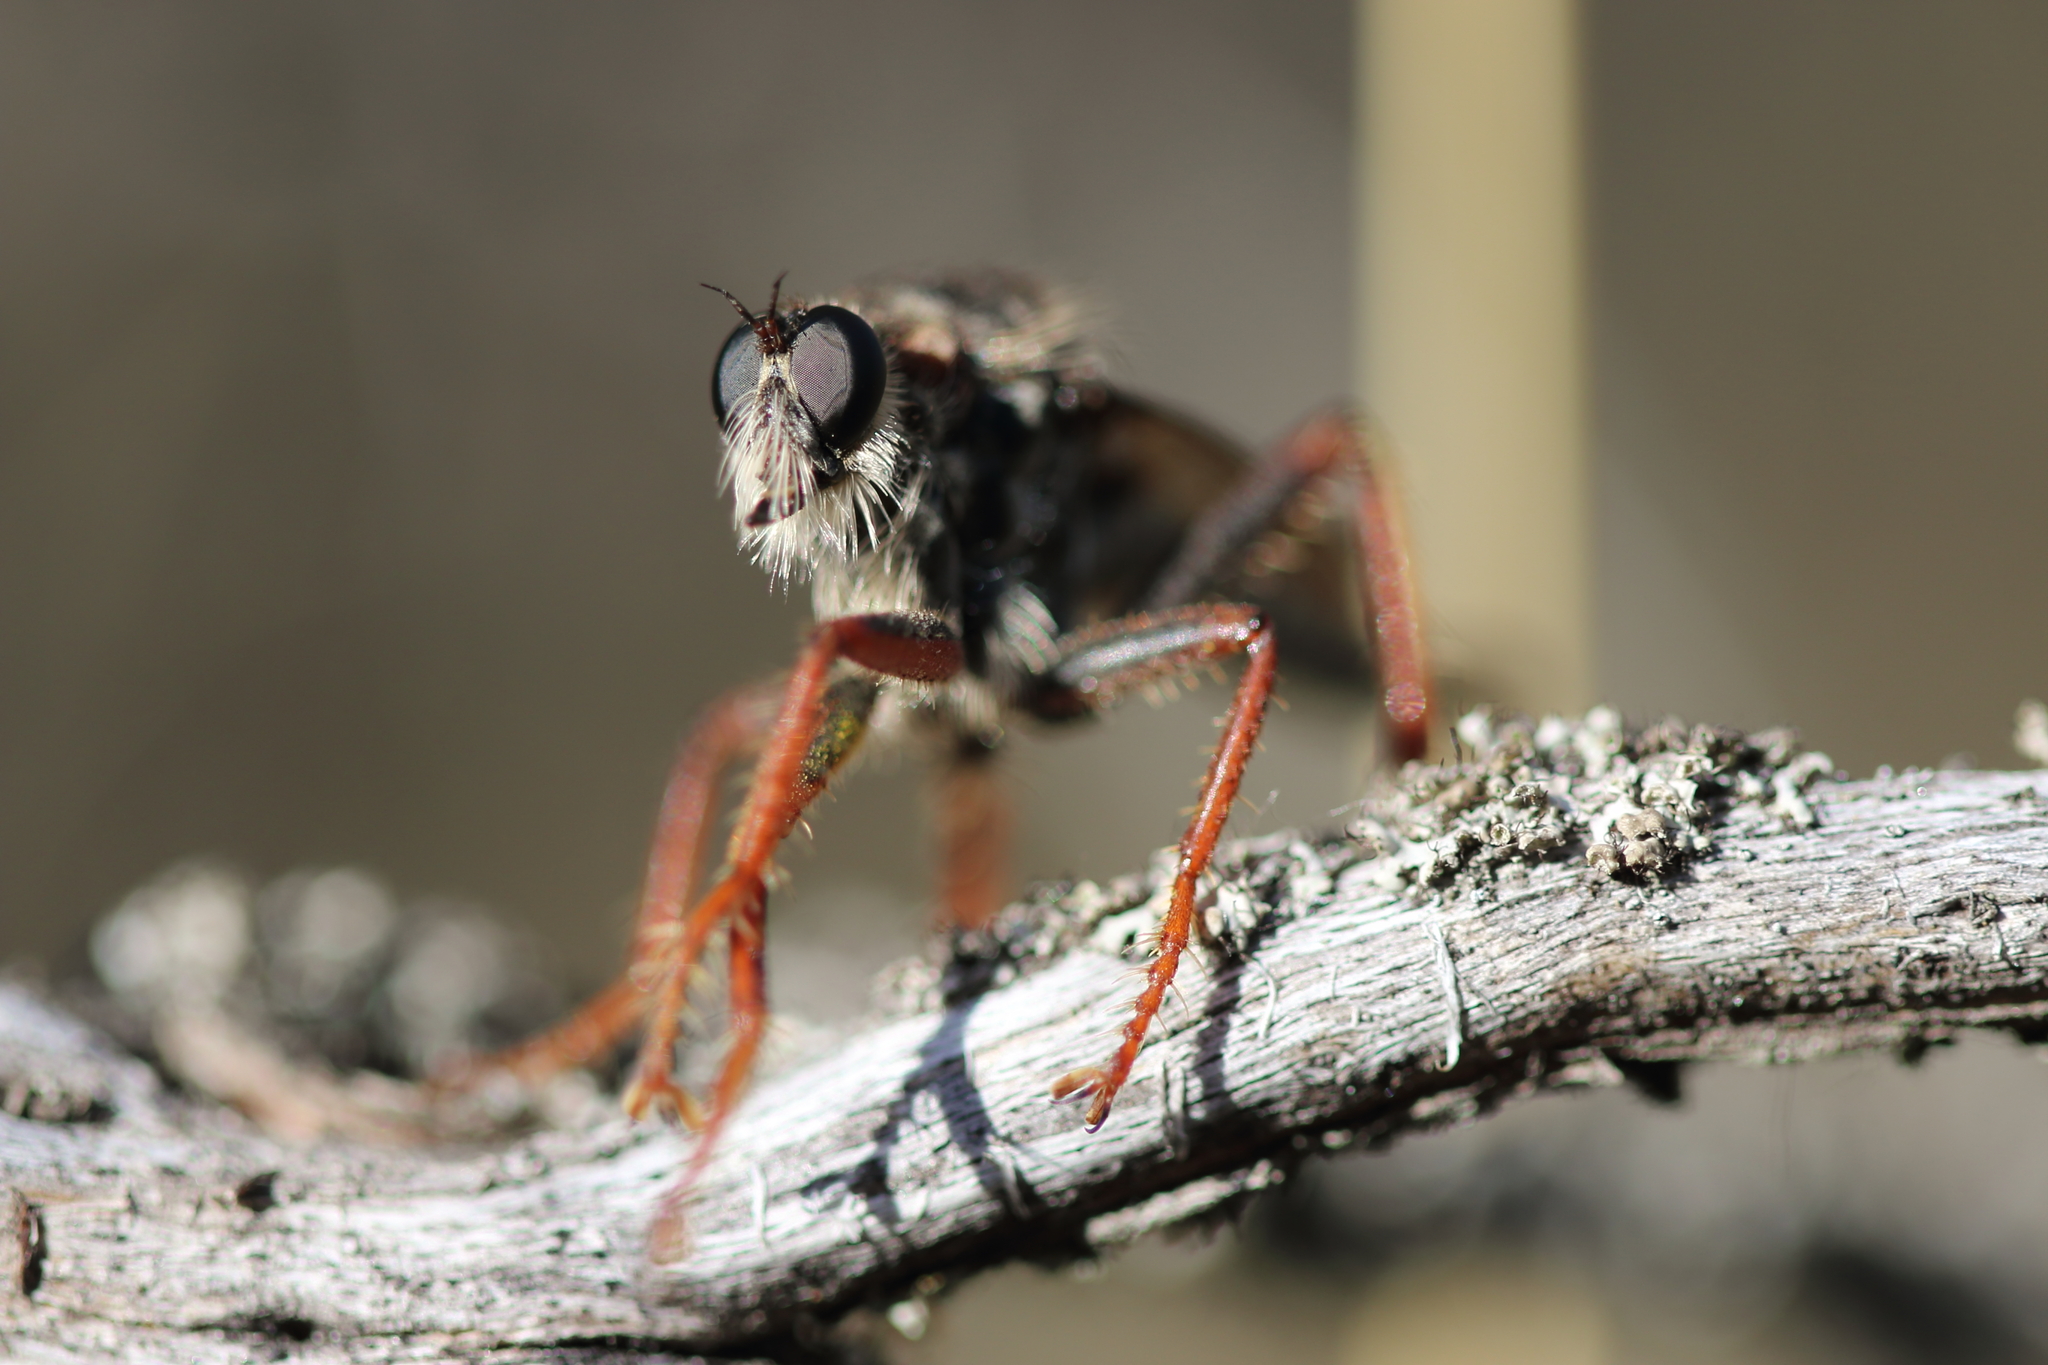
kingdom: Animalia
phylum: Arthropoda
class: Insecta
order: Diptera
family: Asilidae
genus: Stenopogon
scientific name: Stenopogon inquinatus
